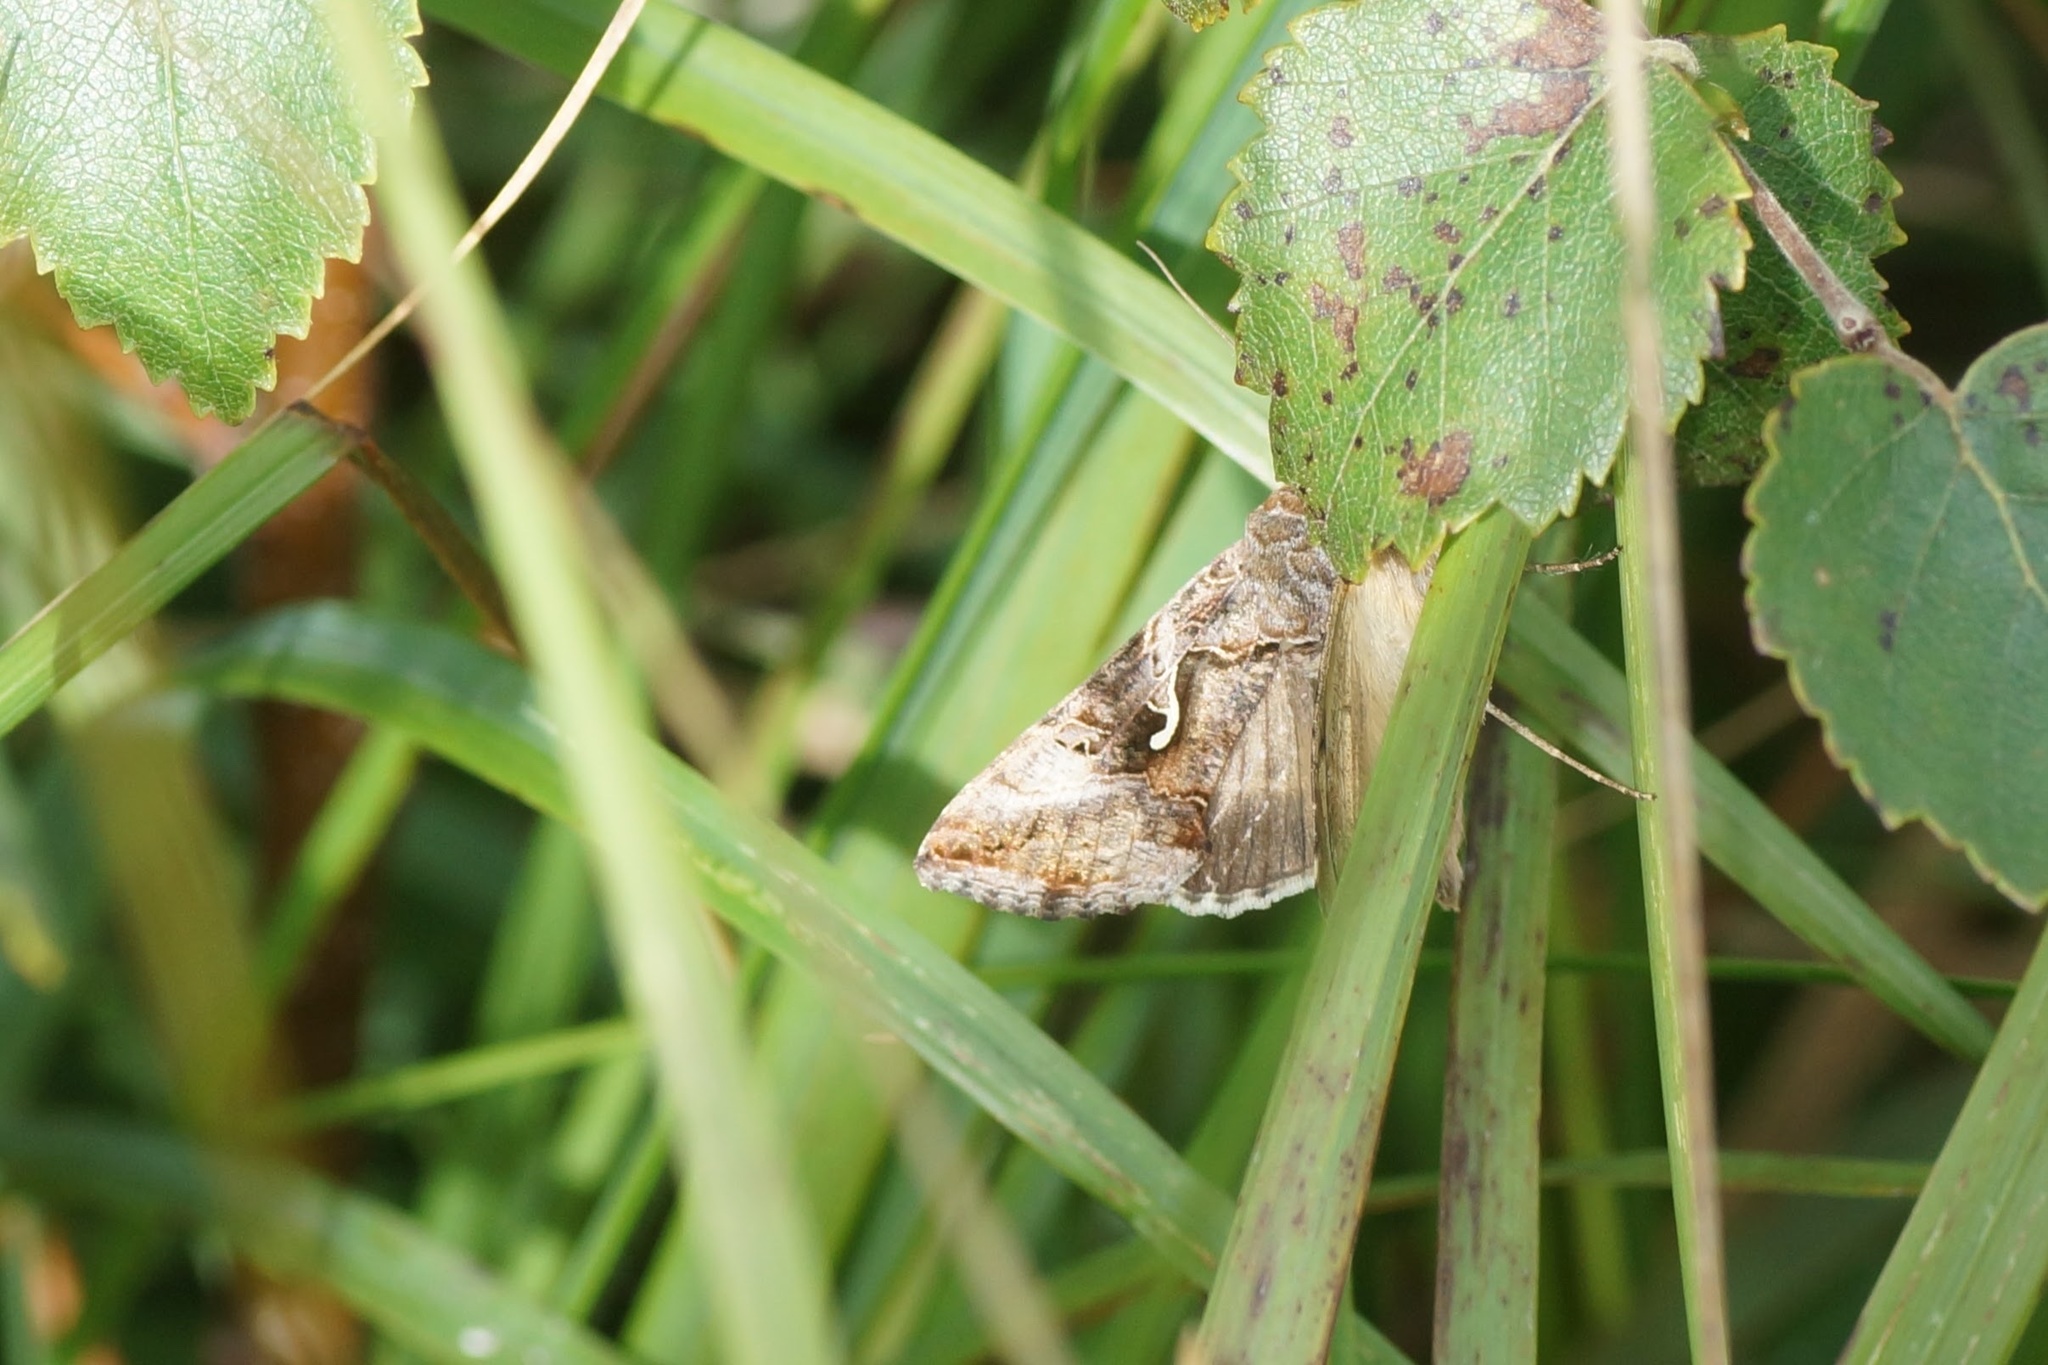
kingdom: Animalia
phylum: Arthropoda
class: Insecta
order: Lepidoptera
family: Noctuidae
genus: Autographa
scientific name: Autographa gamma
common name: Silver y
